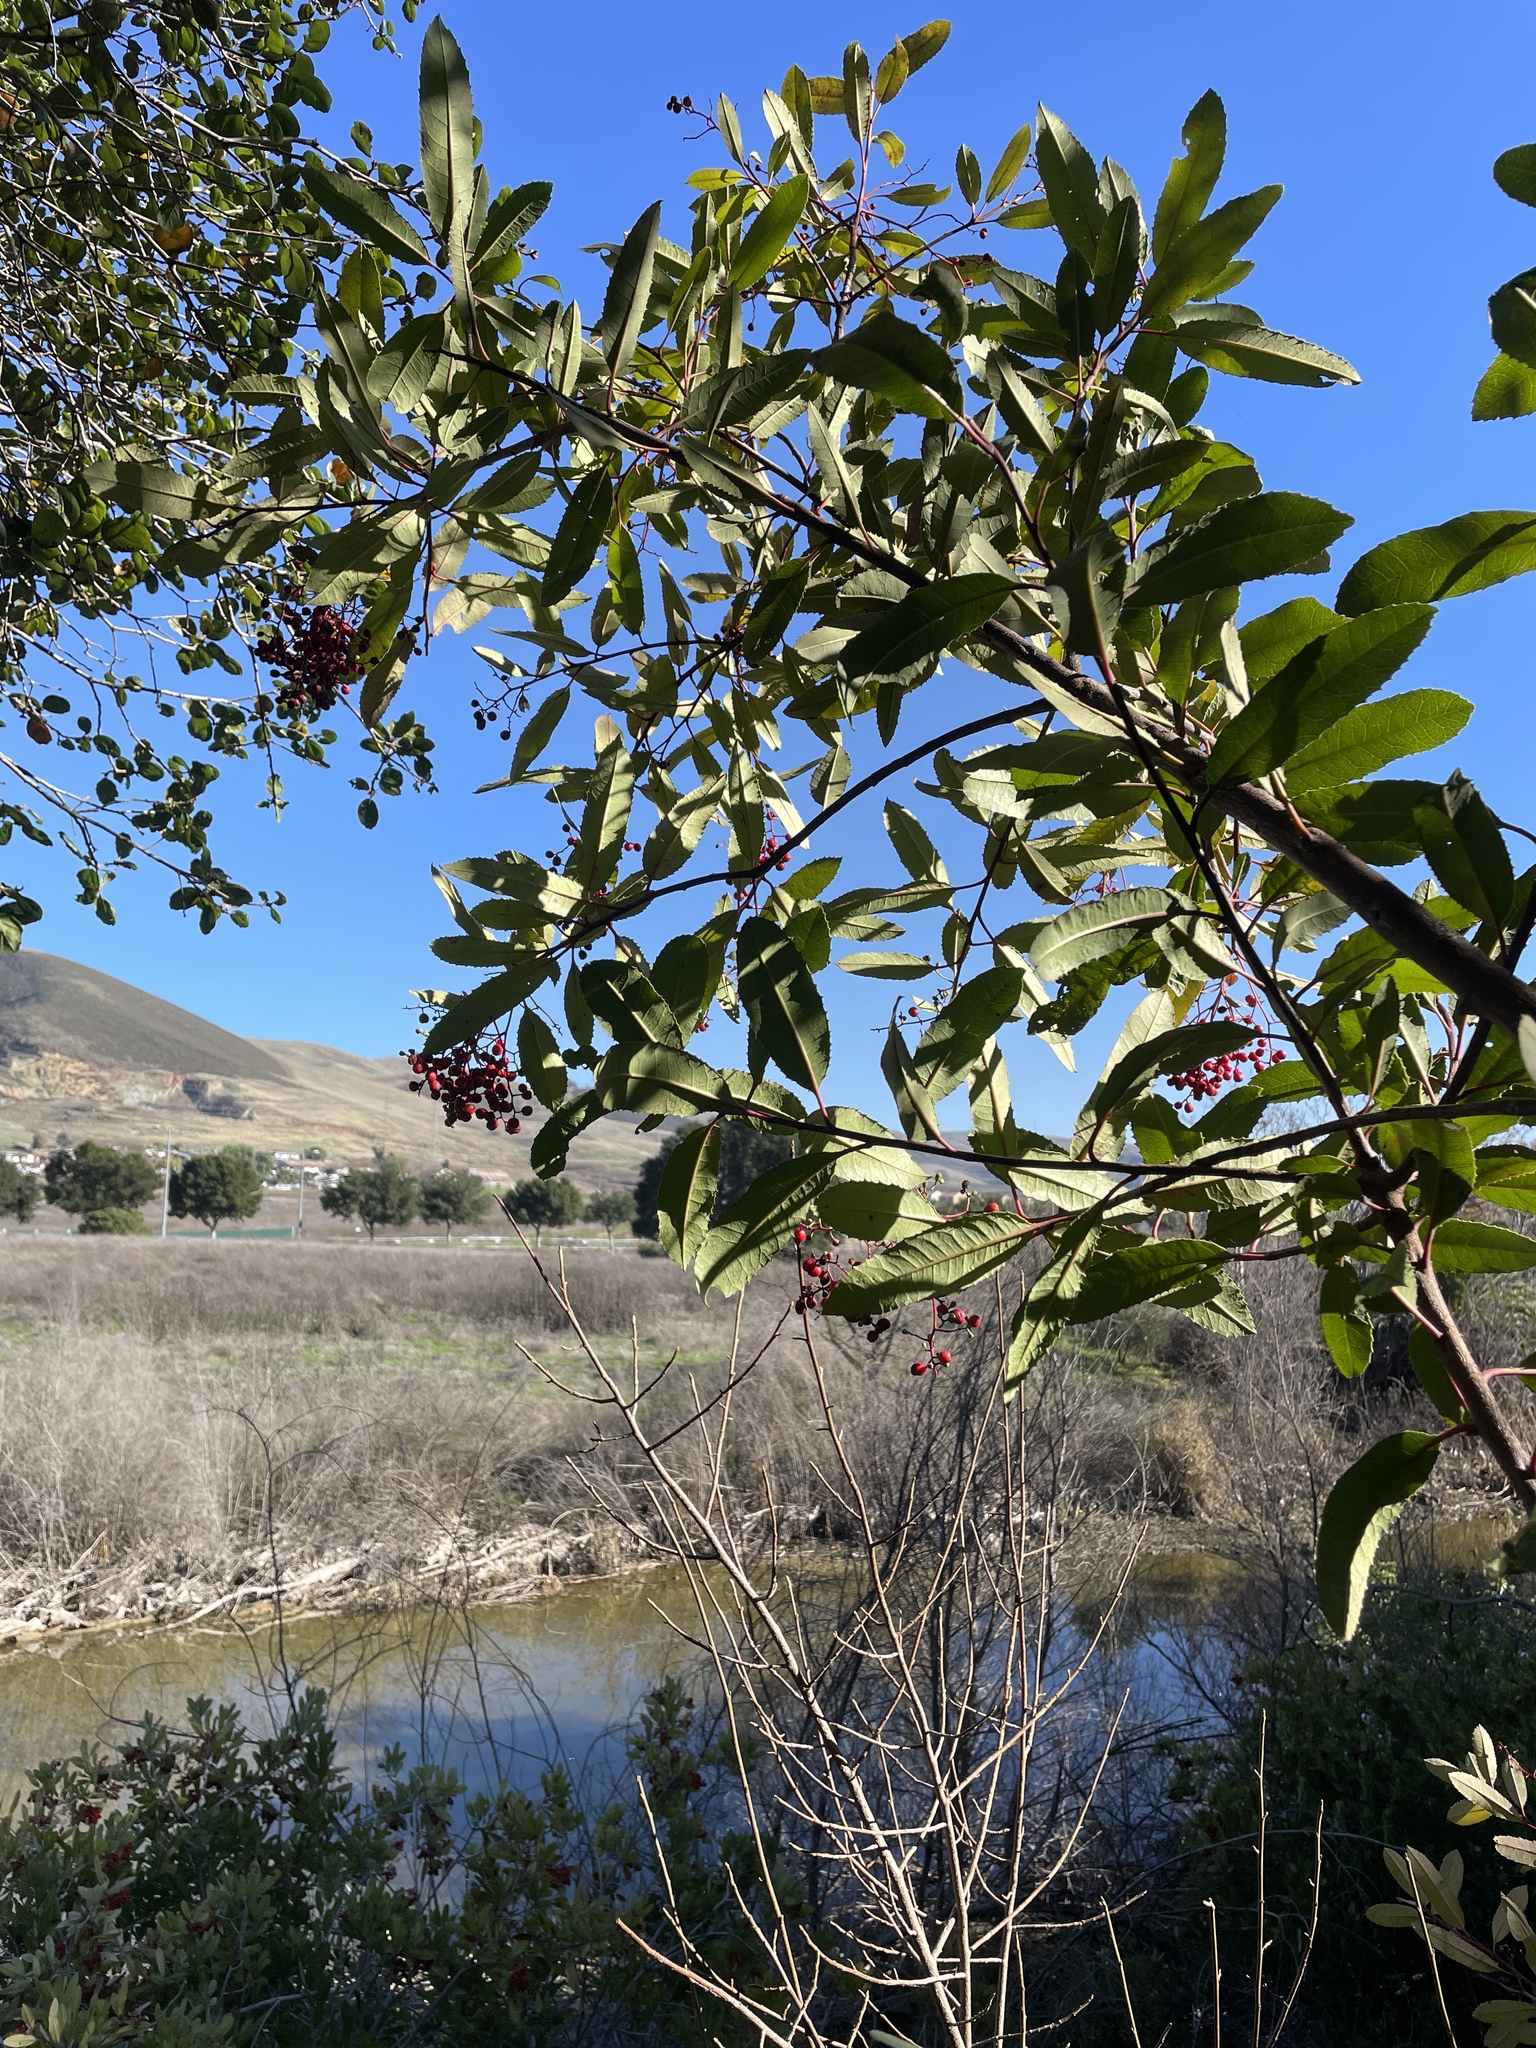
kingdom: Plantae
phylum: Tracheophyta
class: Magnoliopsida
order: Rosales
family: Rosaceae
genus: Heteromeles
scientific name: Heteromeles arbutifolia
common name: California-holly
